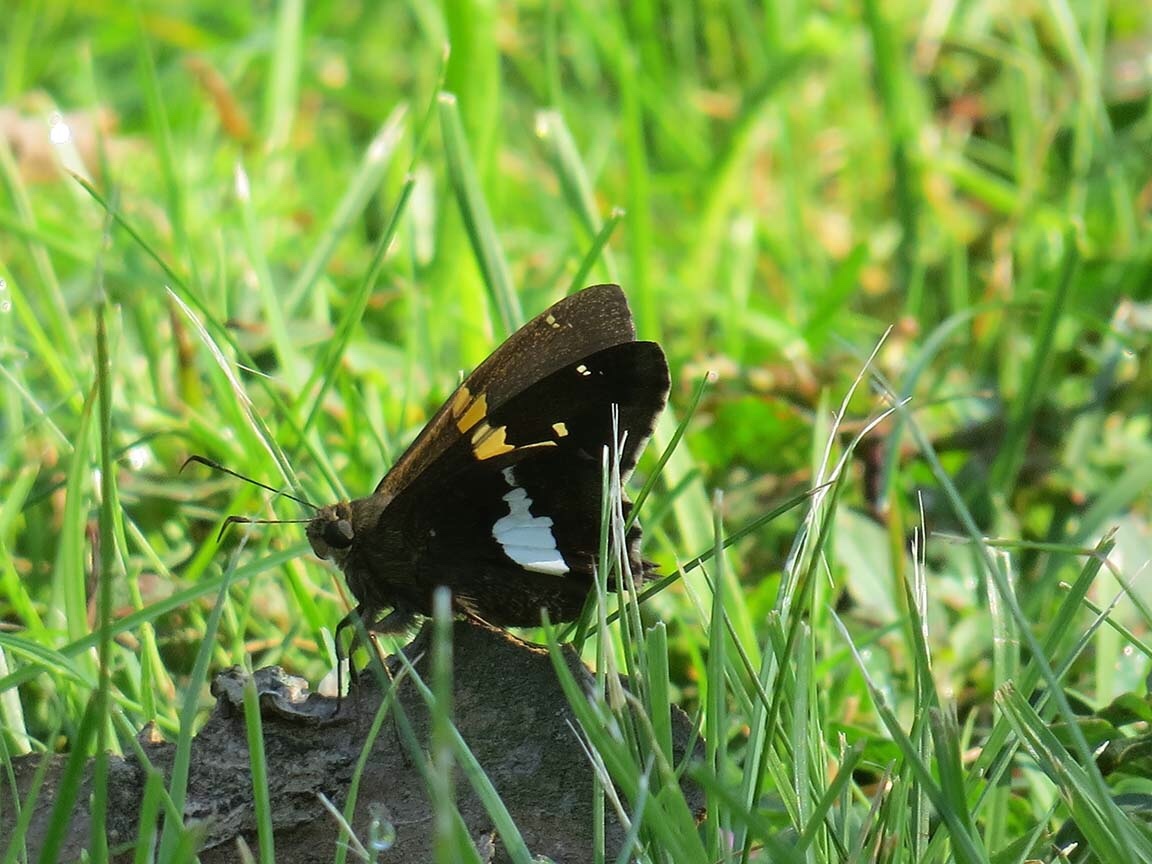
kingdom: Animalia
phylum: Arthropoda
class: Insecta
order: Lepidoptera
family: Hesperiidae
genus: Epargyreus
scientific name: Epargyreus clarus
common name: Silver-spotted skipper
